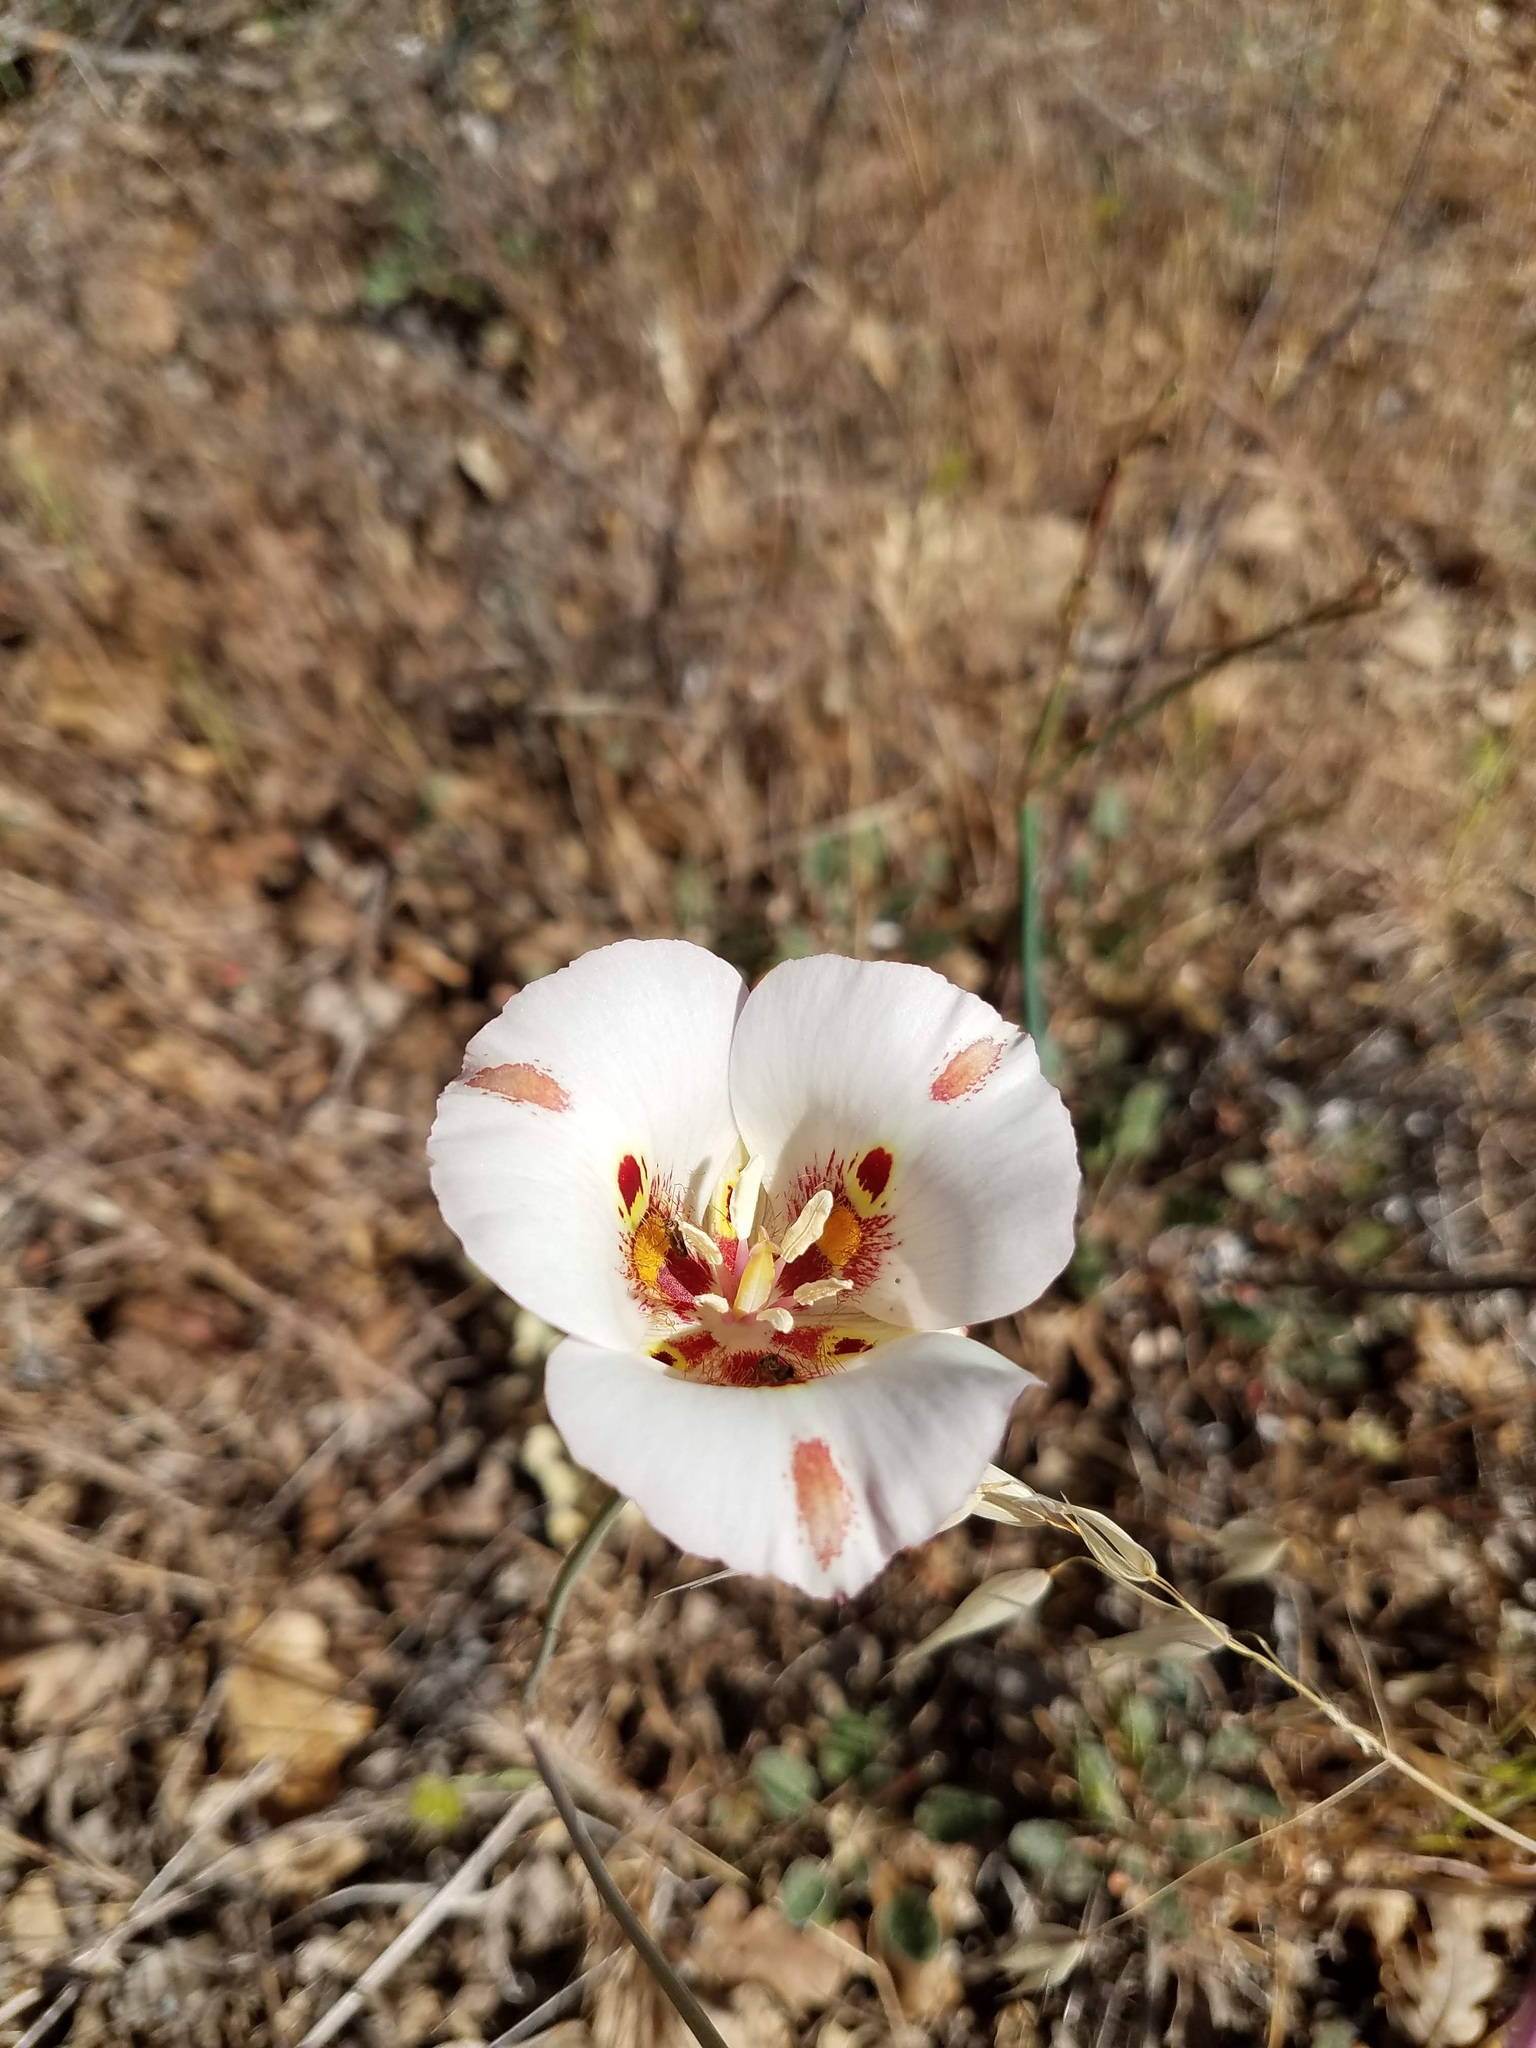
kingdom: Plantae
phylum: Tracheophyta
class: Liliopsida
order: Liliales
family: Liliaceae
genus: Calochortus
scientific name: Calochortus venustus
